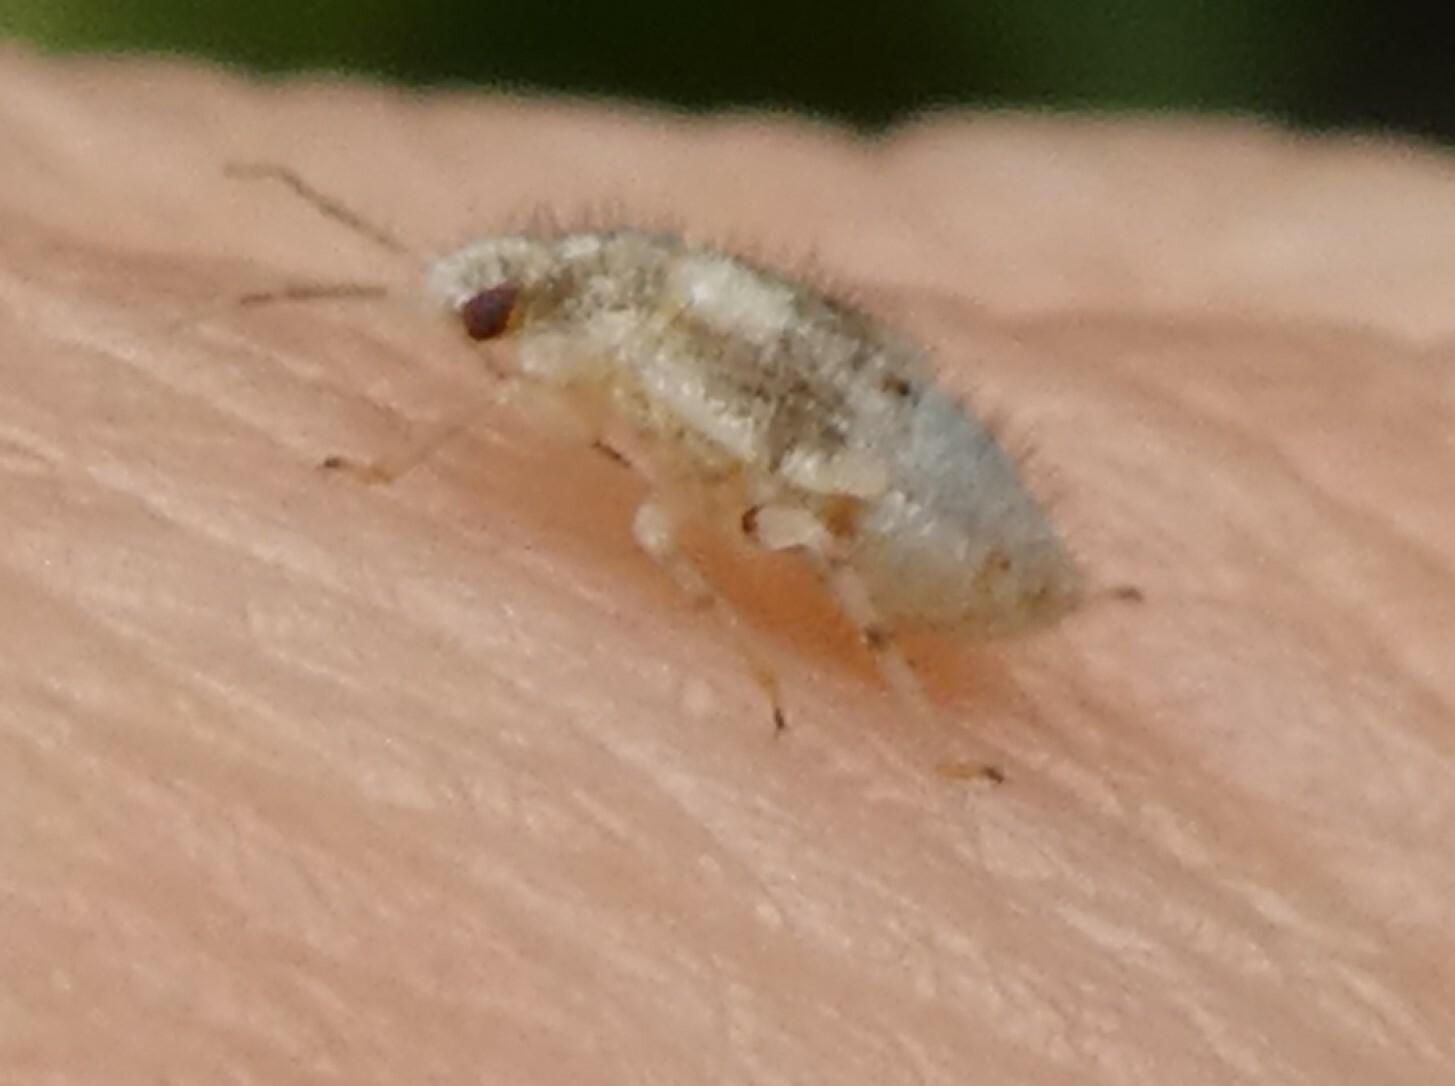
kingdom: Animalia
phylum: Arthropoda
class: Insecta
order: Hemiptera
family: Miridae
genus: Deraeocoris
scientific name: Deraeocoris lutescens
